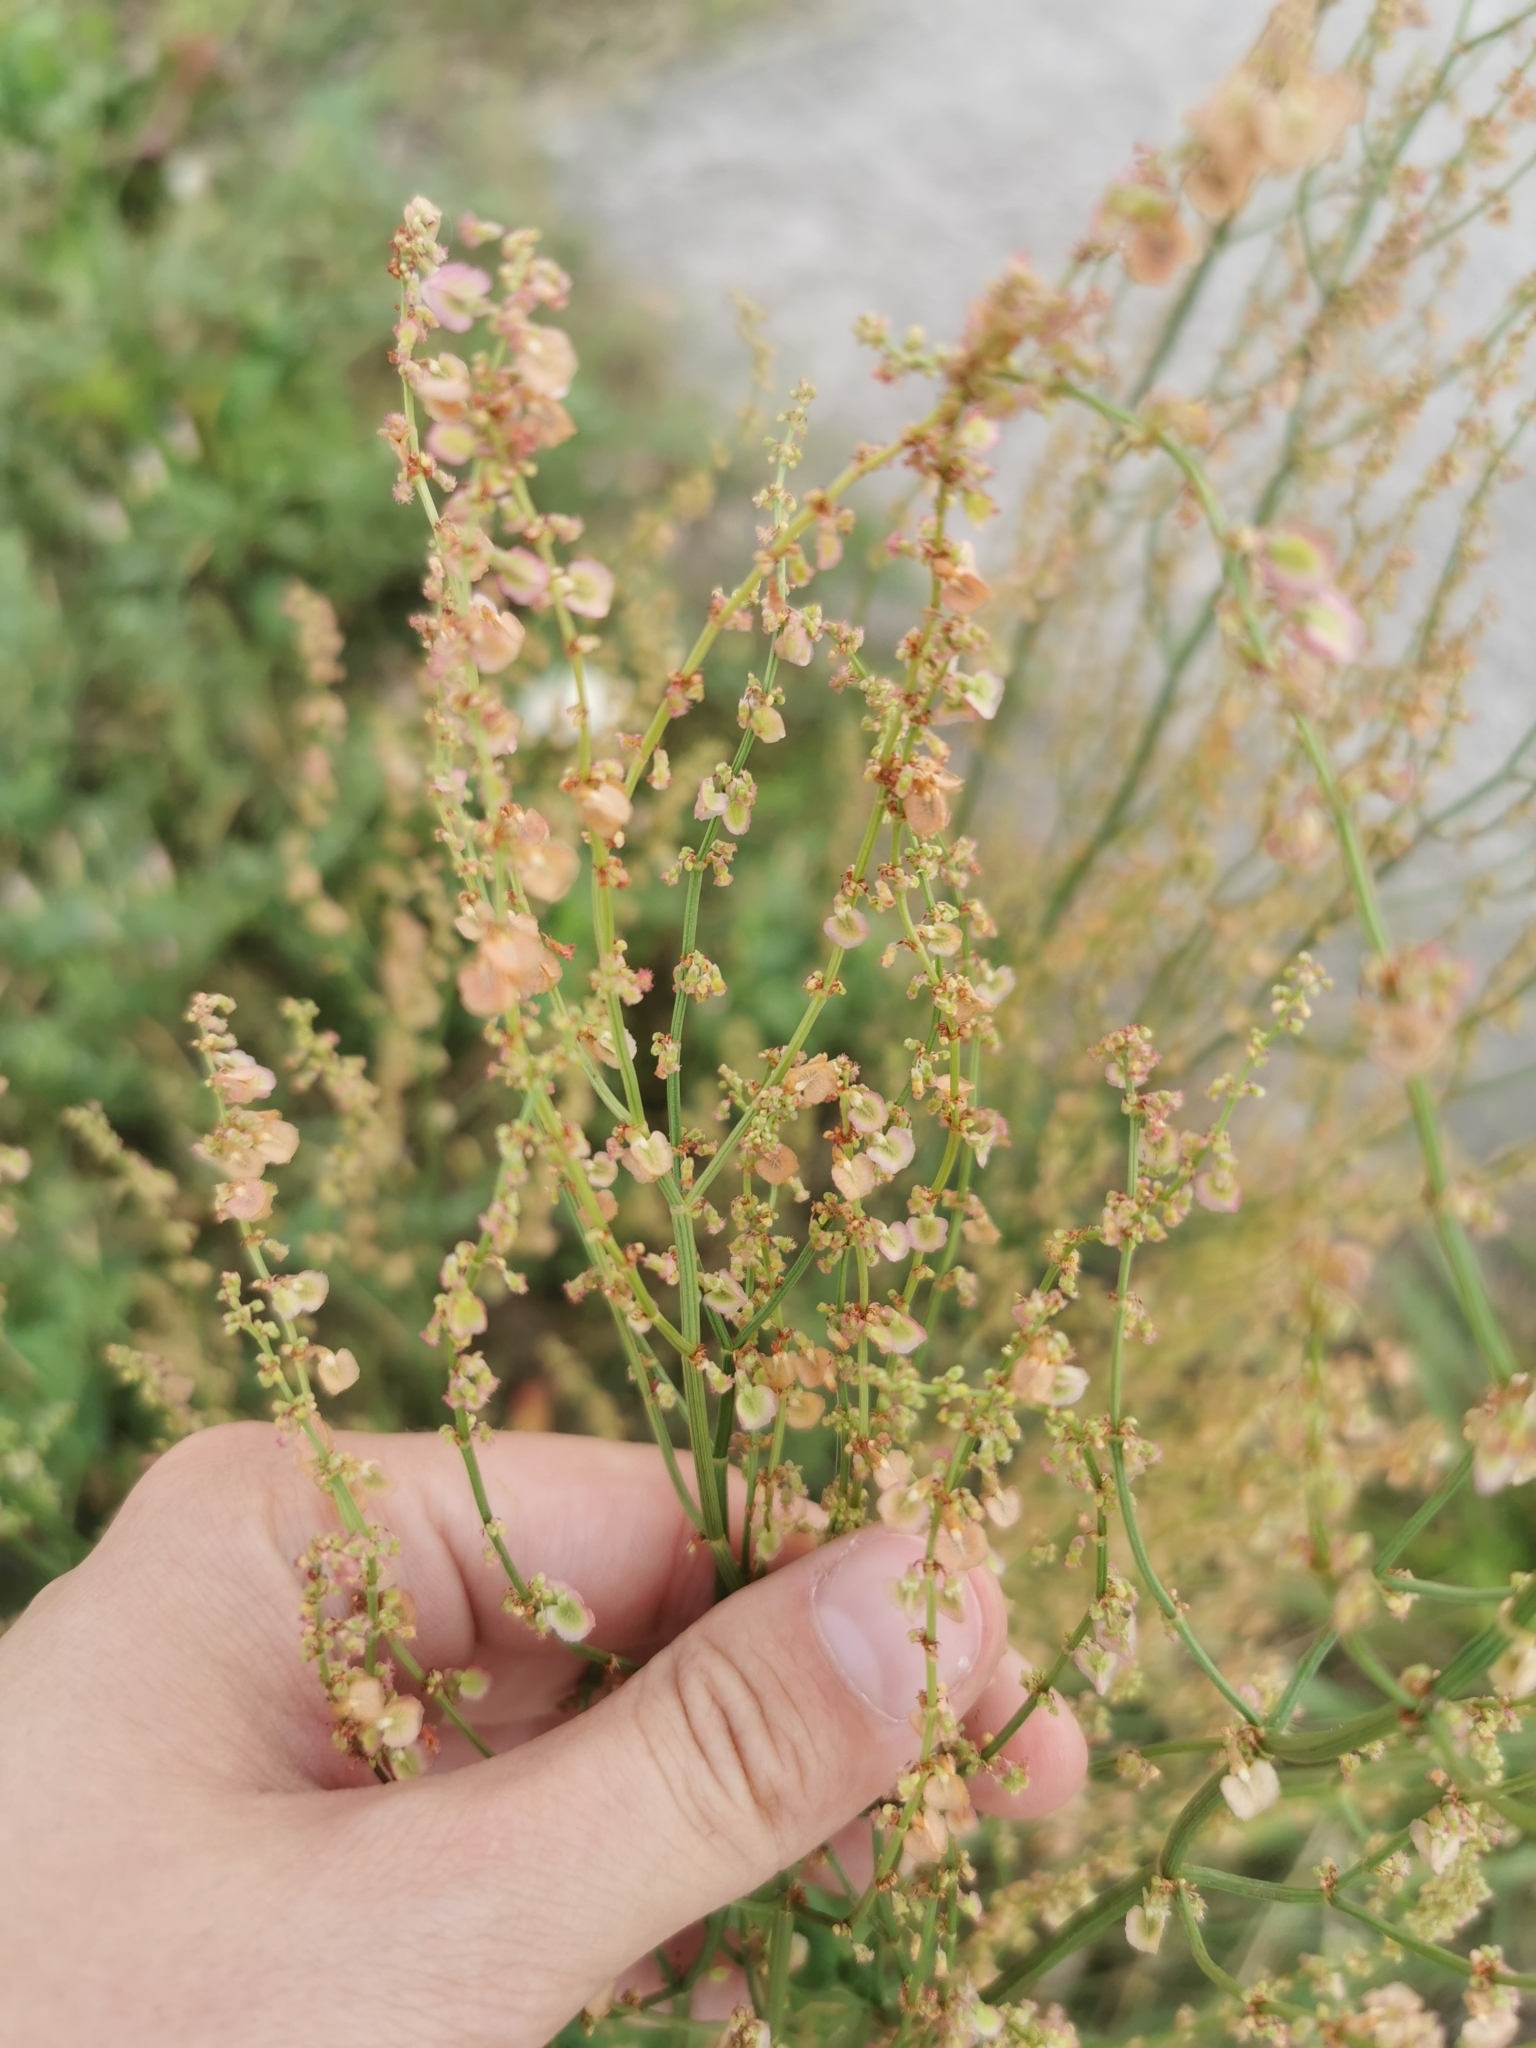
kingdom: Plantae
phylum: Tracheophyta
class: Magnoliopsida
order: Caryophyllales
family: Polygonaceae
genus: Rumex
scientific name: Rumex thyrsiflorus
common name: Garden sorrel
